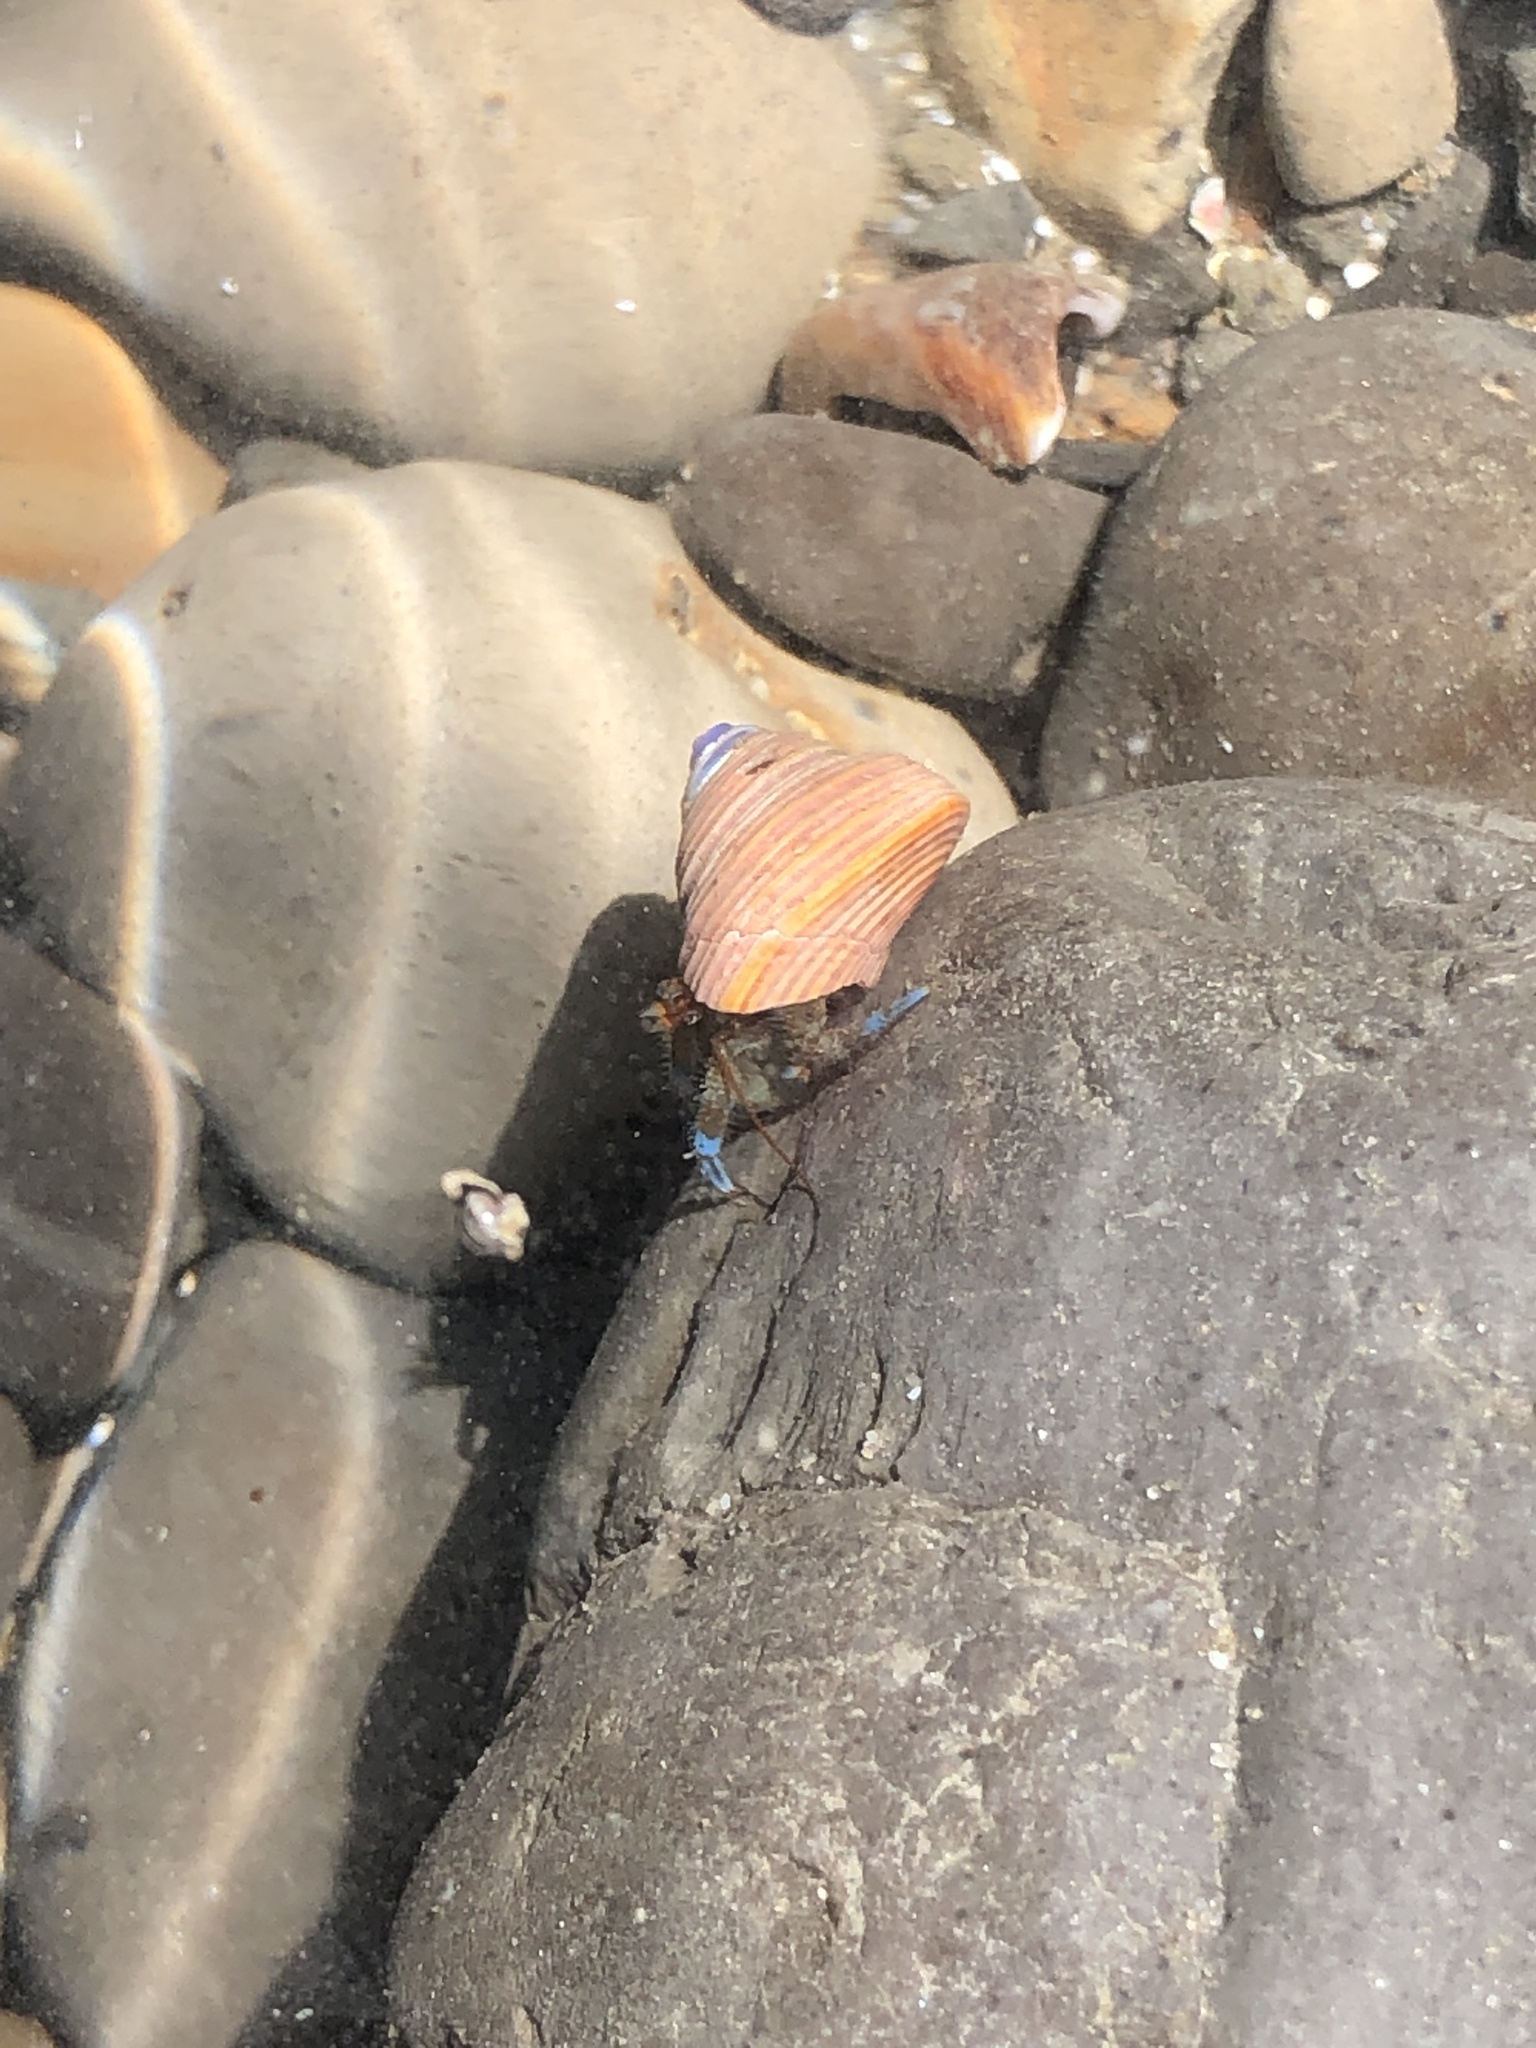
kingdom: Animalia
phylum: Arthropoda
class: Malacostraca
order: Decapoda
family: Paguridae
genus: Pagurus
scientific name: Pagurus samuelis
